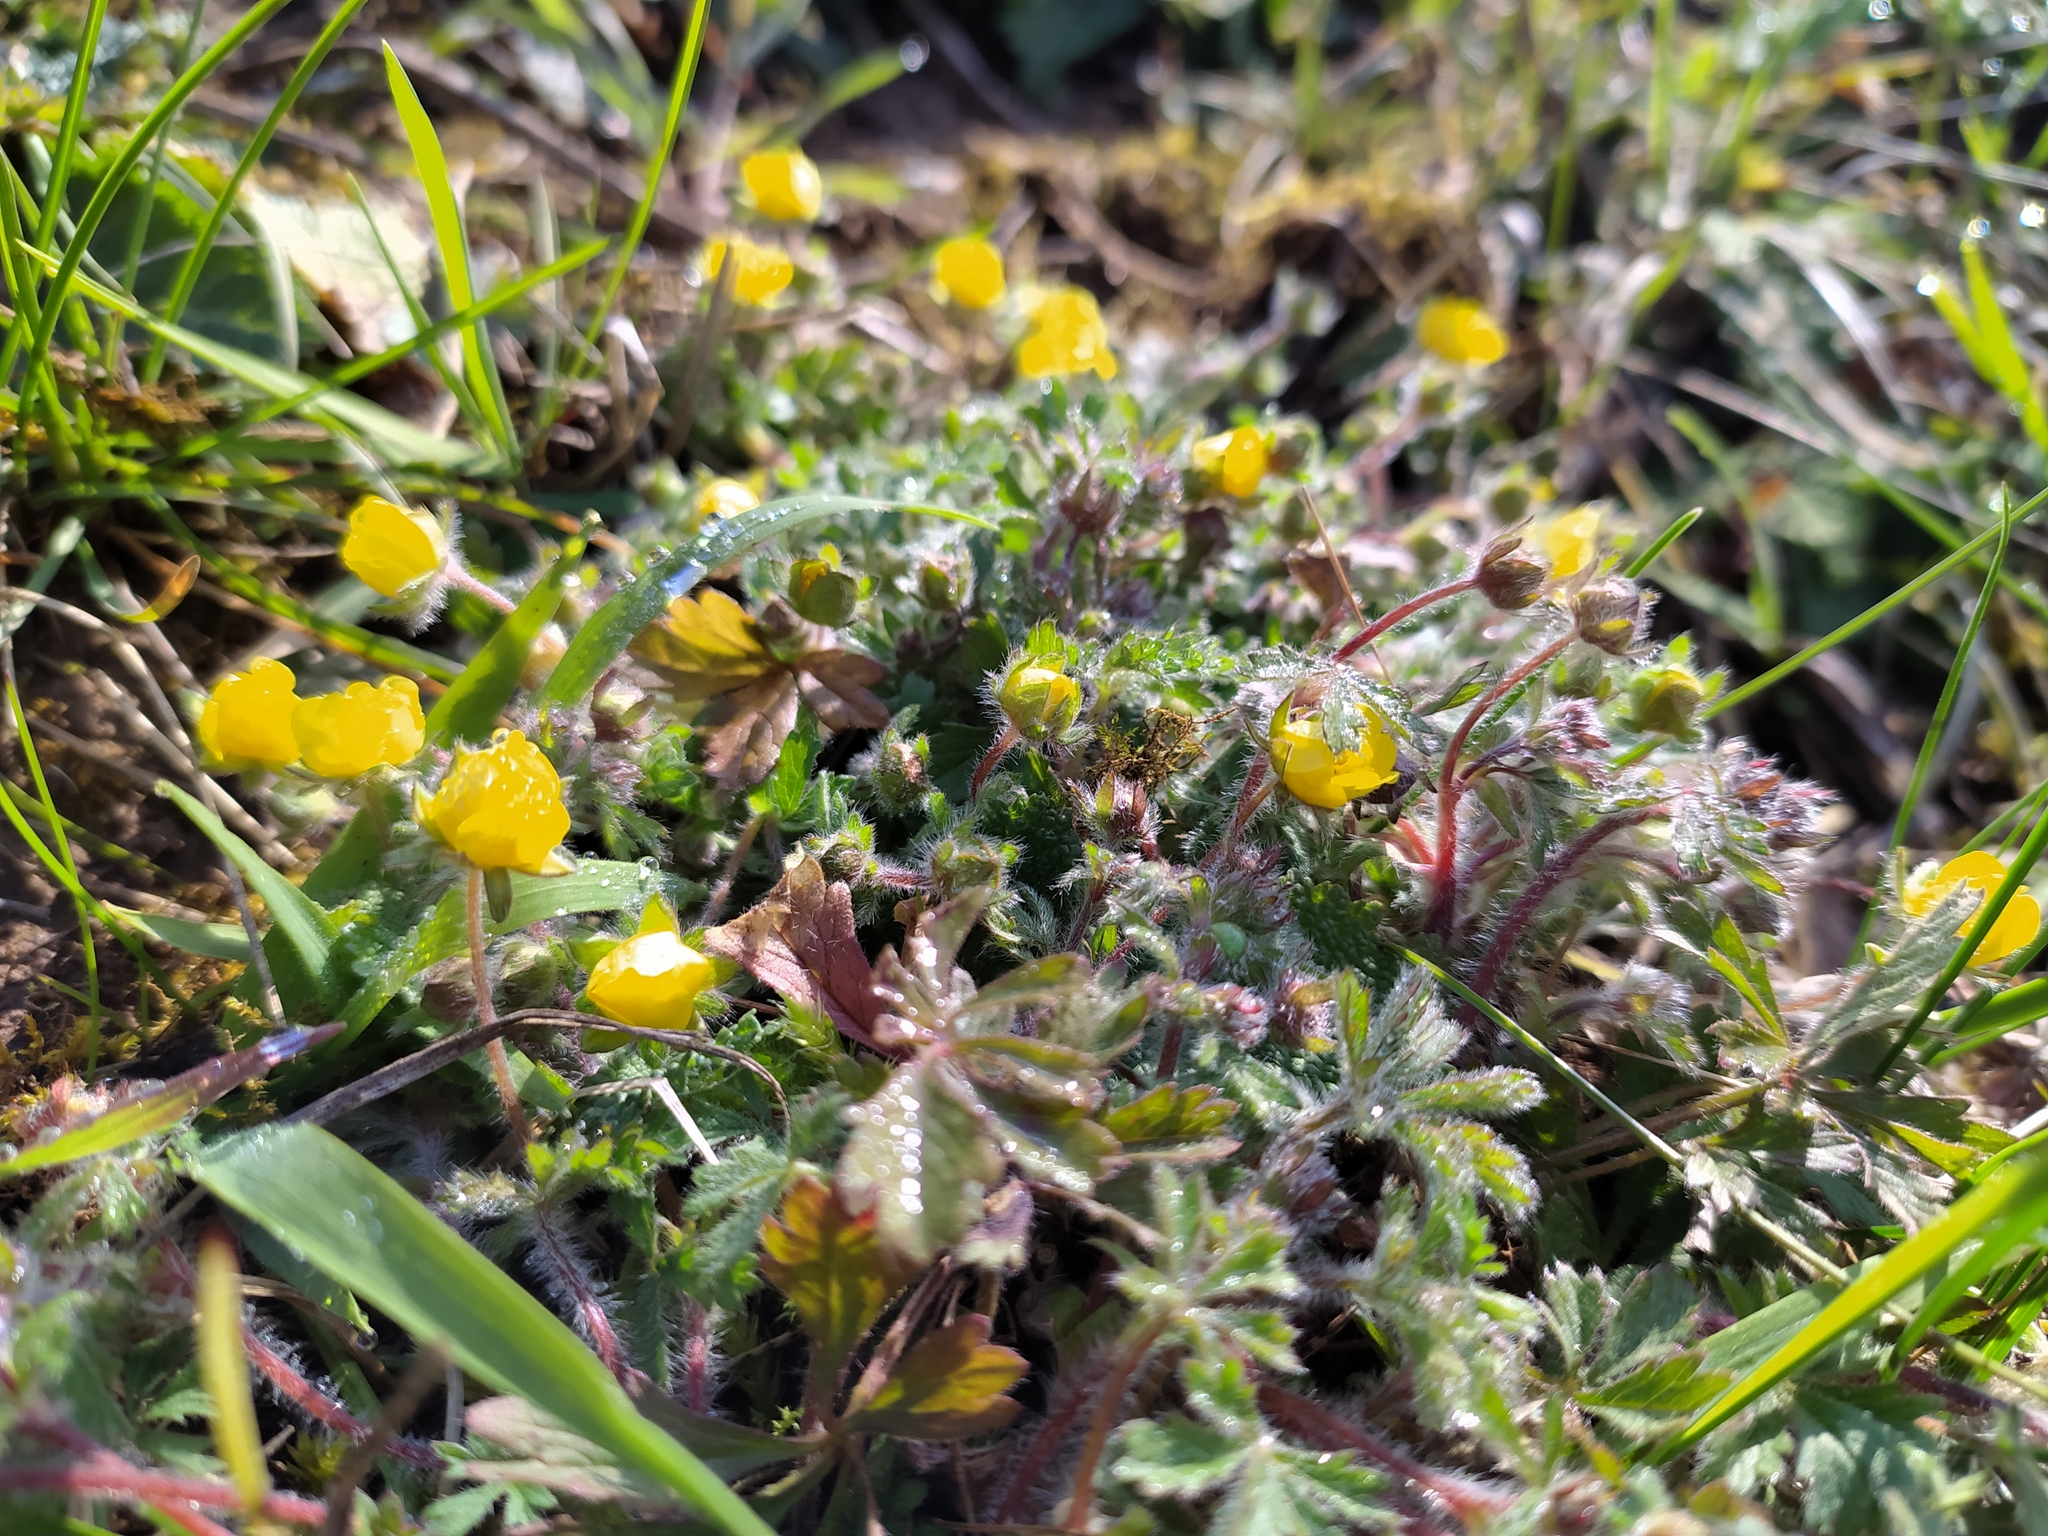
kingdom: Plantae
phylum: Tracheophyta
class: Magnoliopsida
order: Rosales
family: Rosaceae
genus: Potentilla
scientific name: Potentilla heptaphylla
